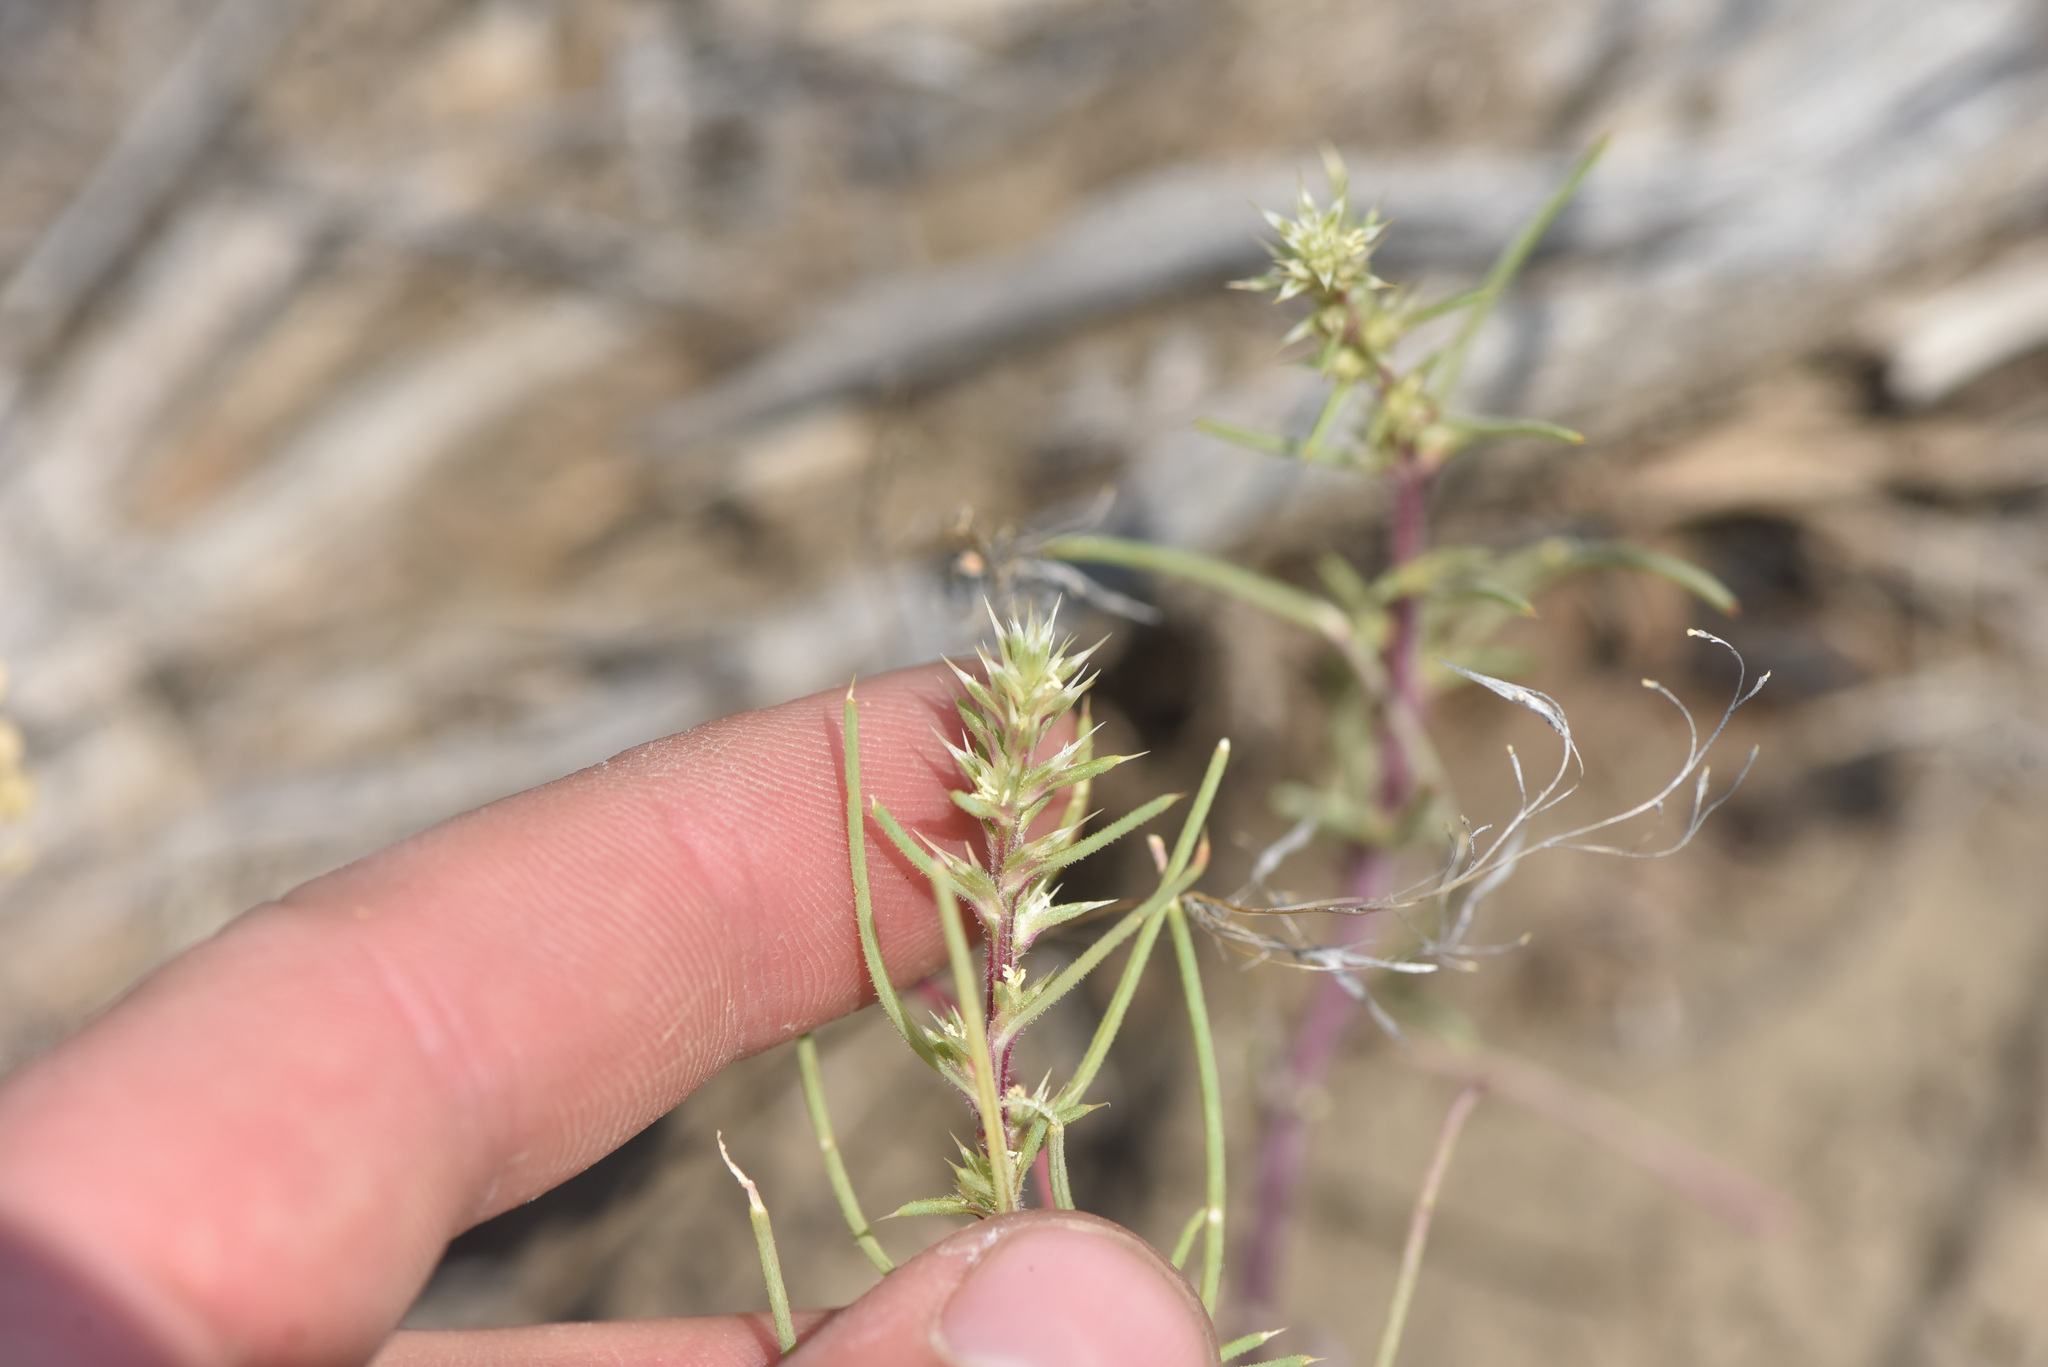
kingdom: Plantae
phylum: Tracheophyta
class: Magnoliopsida
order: Caryophyllales
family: Amaranthaceae
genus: Salsola
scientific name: Salsola tragus
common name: Prickly russian thistle
